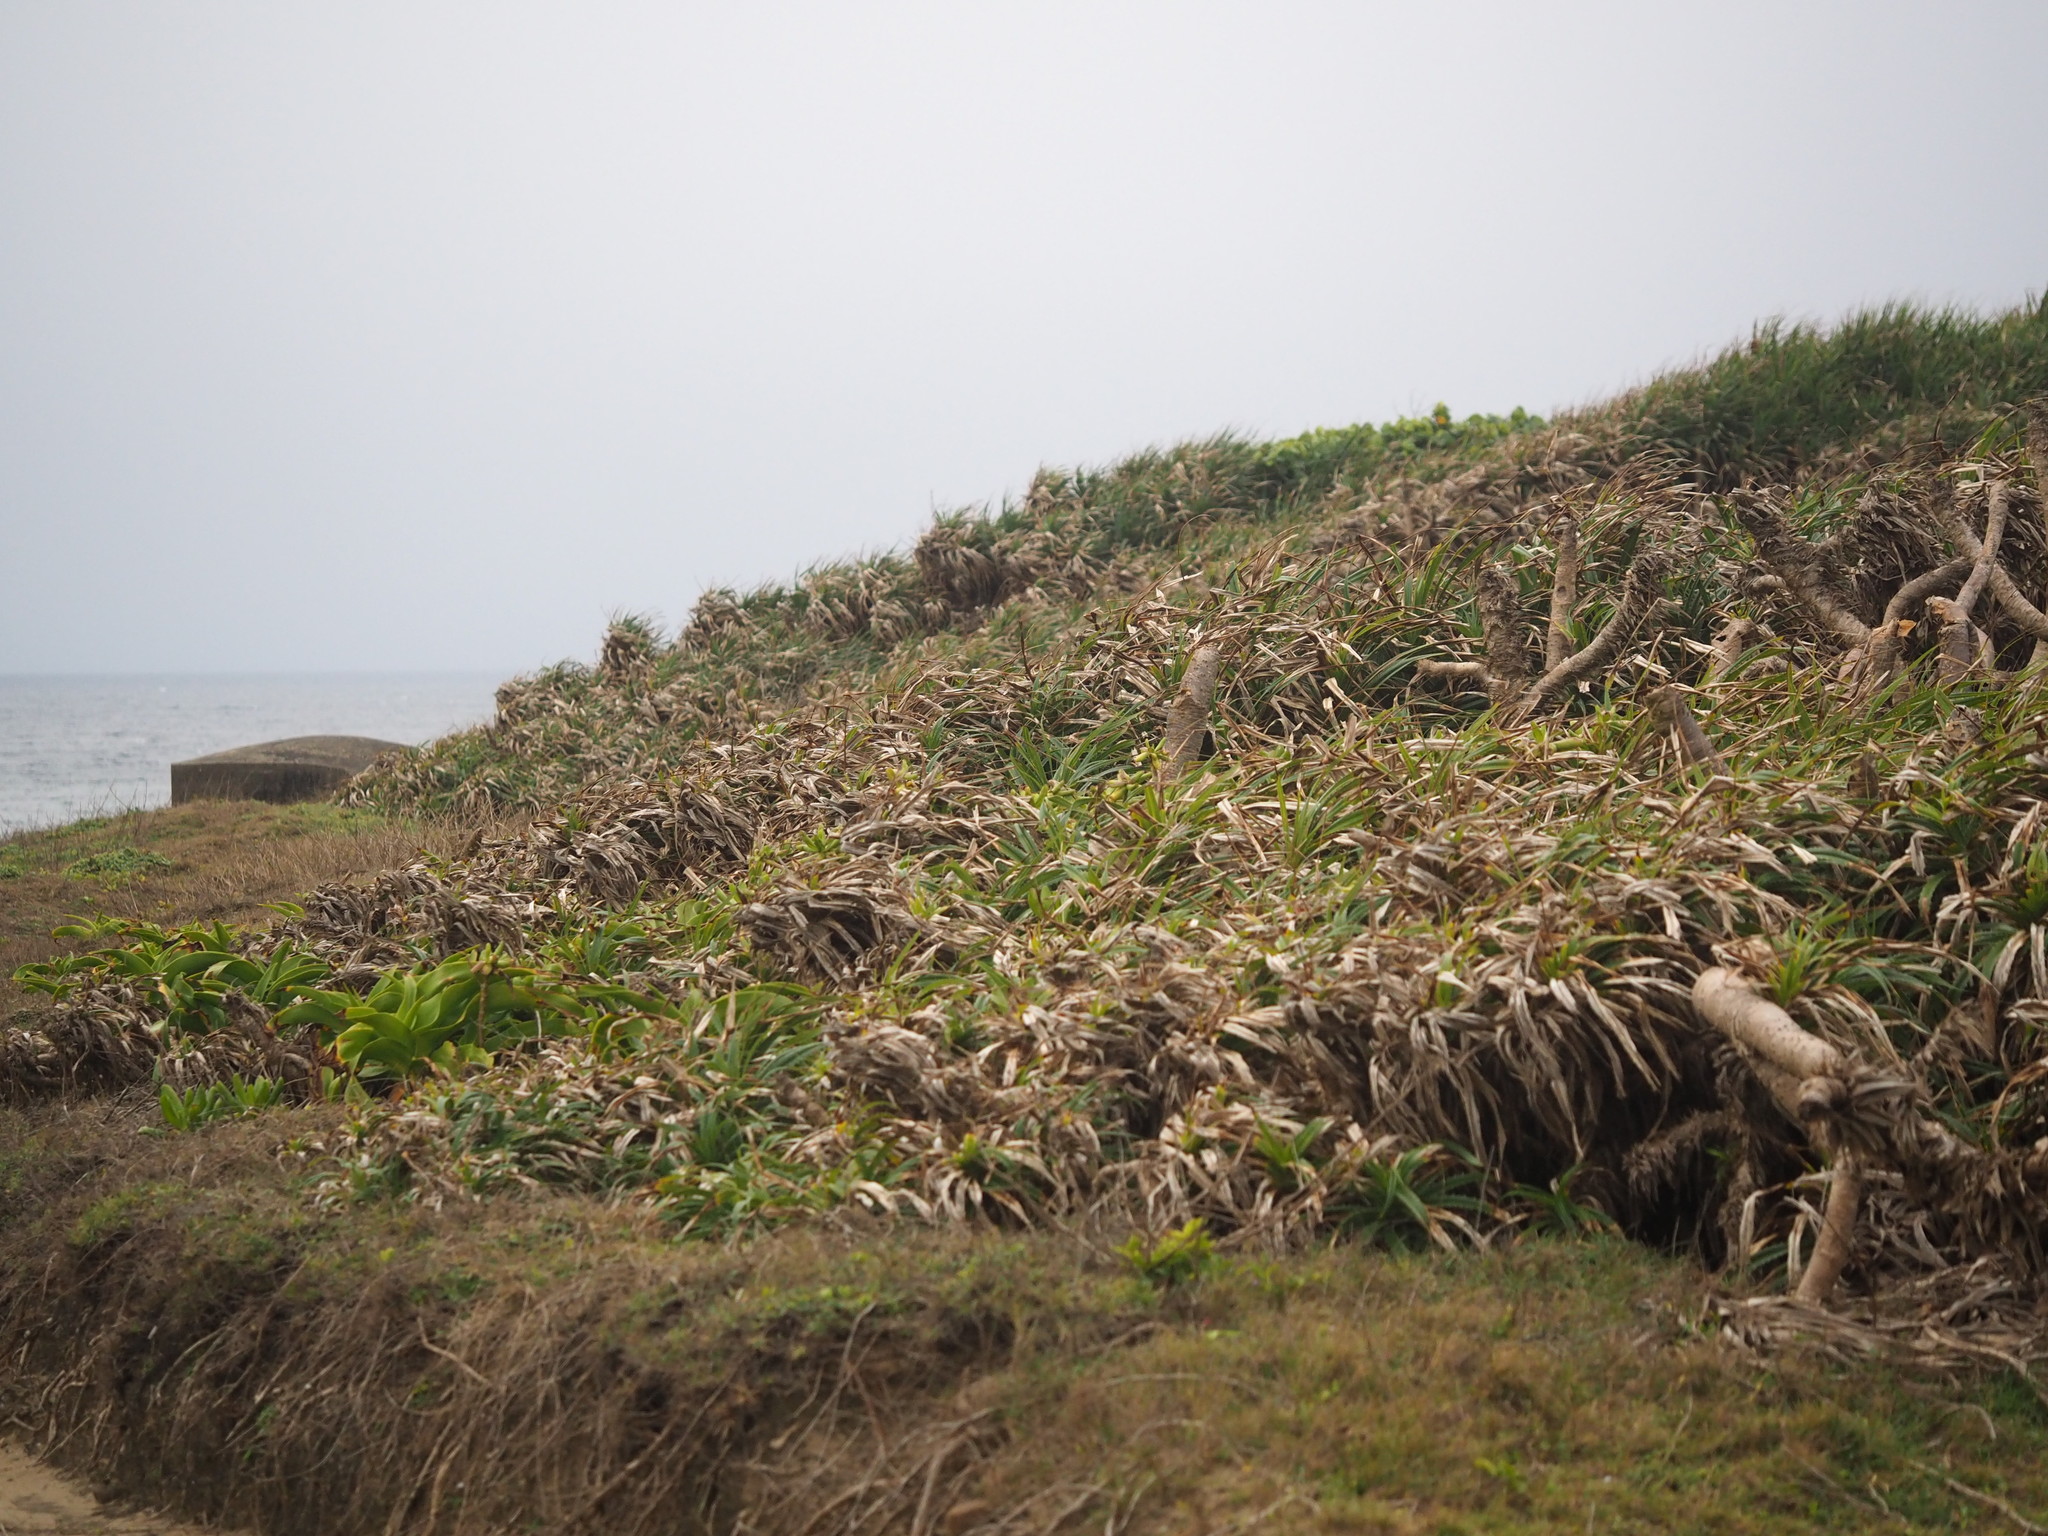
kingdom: Plantae
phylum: Tracheophyta
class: Liliopsida
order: Pandanales
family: Pandanaceae
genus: Pandanus
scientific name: Pandanus odorifer
